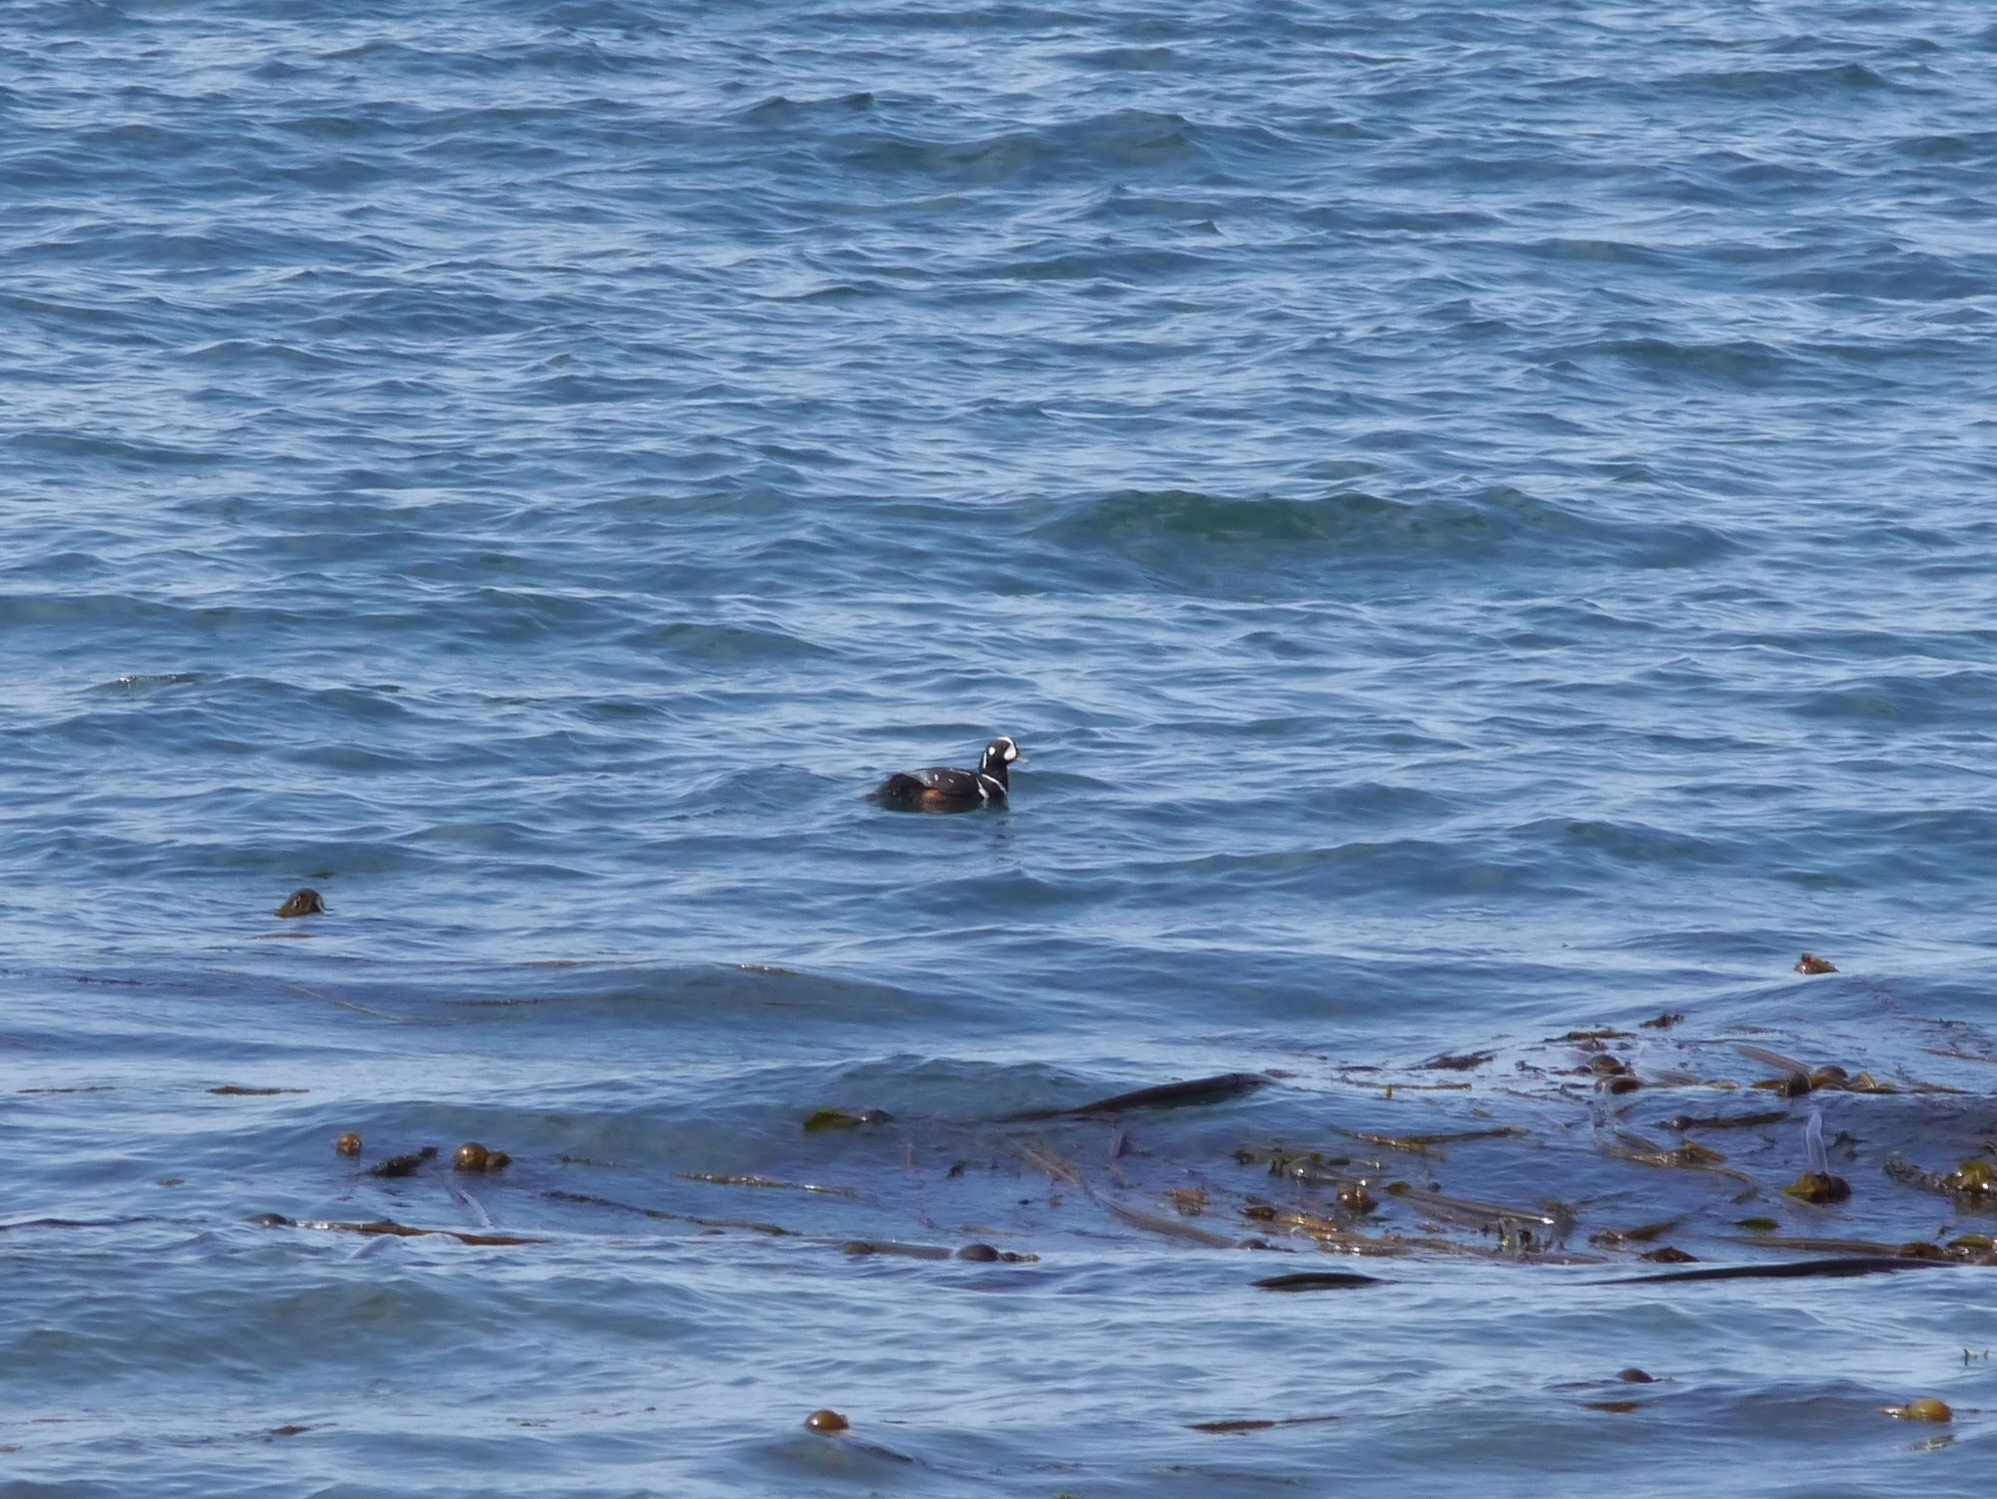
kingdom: Animalia
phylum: Chordata
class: Aves
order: Anseriformes
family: Anatidae
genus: Histrionicus
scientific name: Histrionicus histrionicus
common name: Harlequin duck
